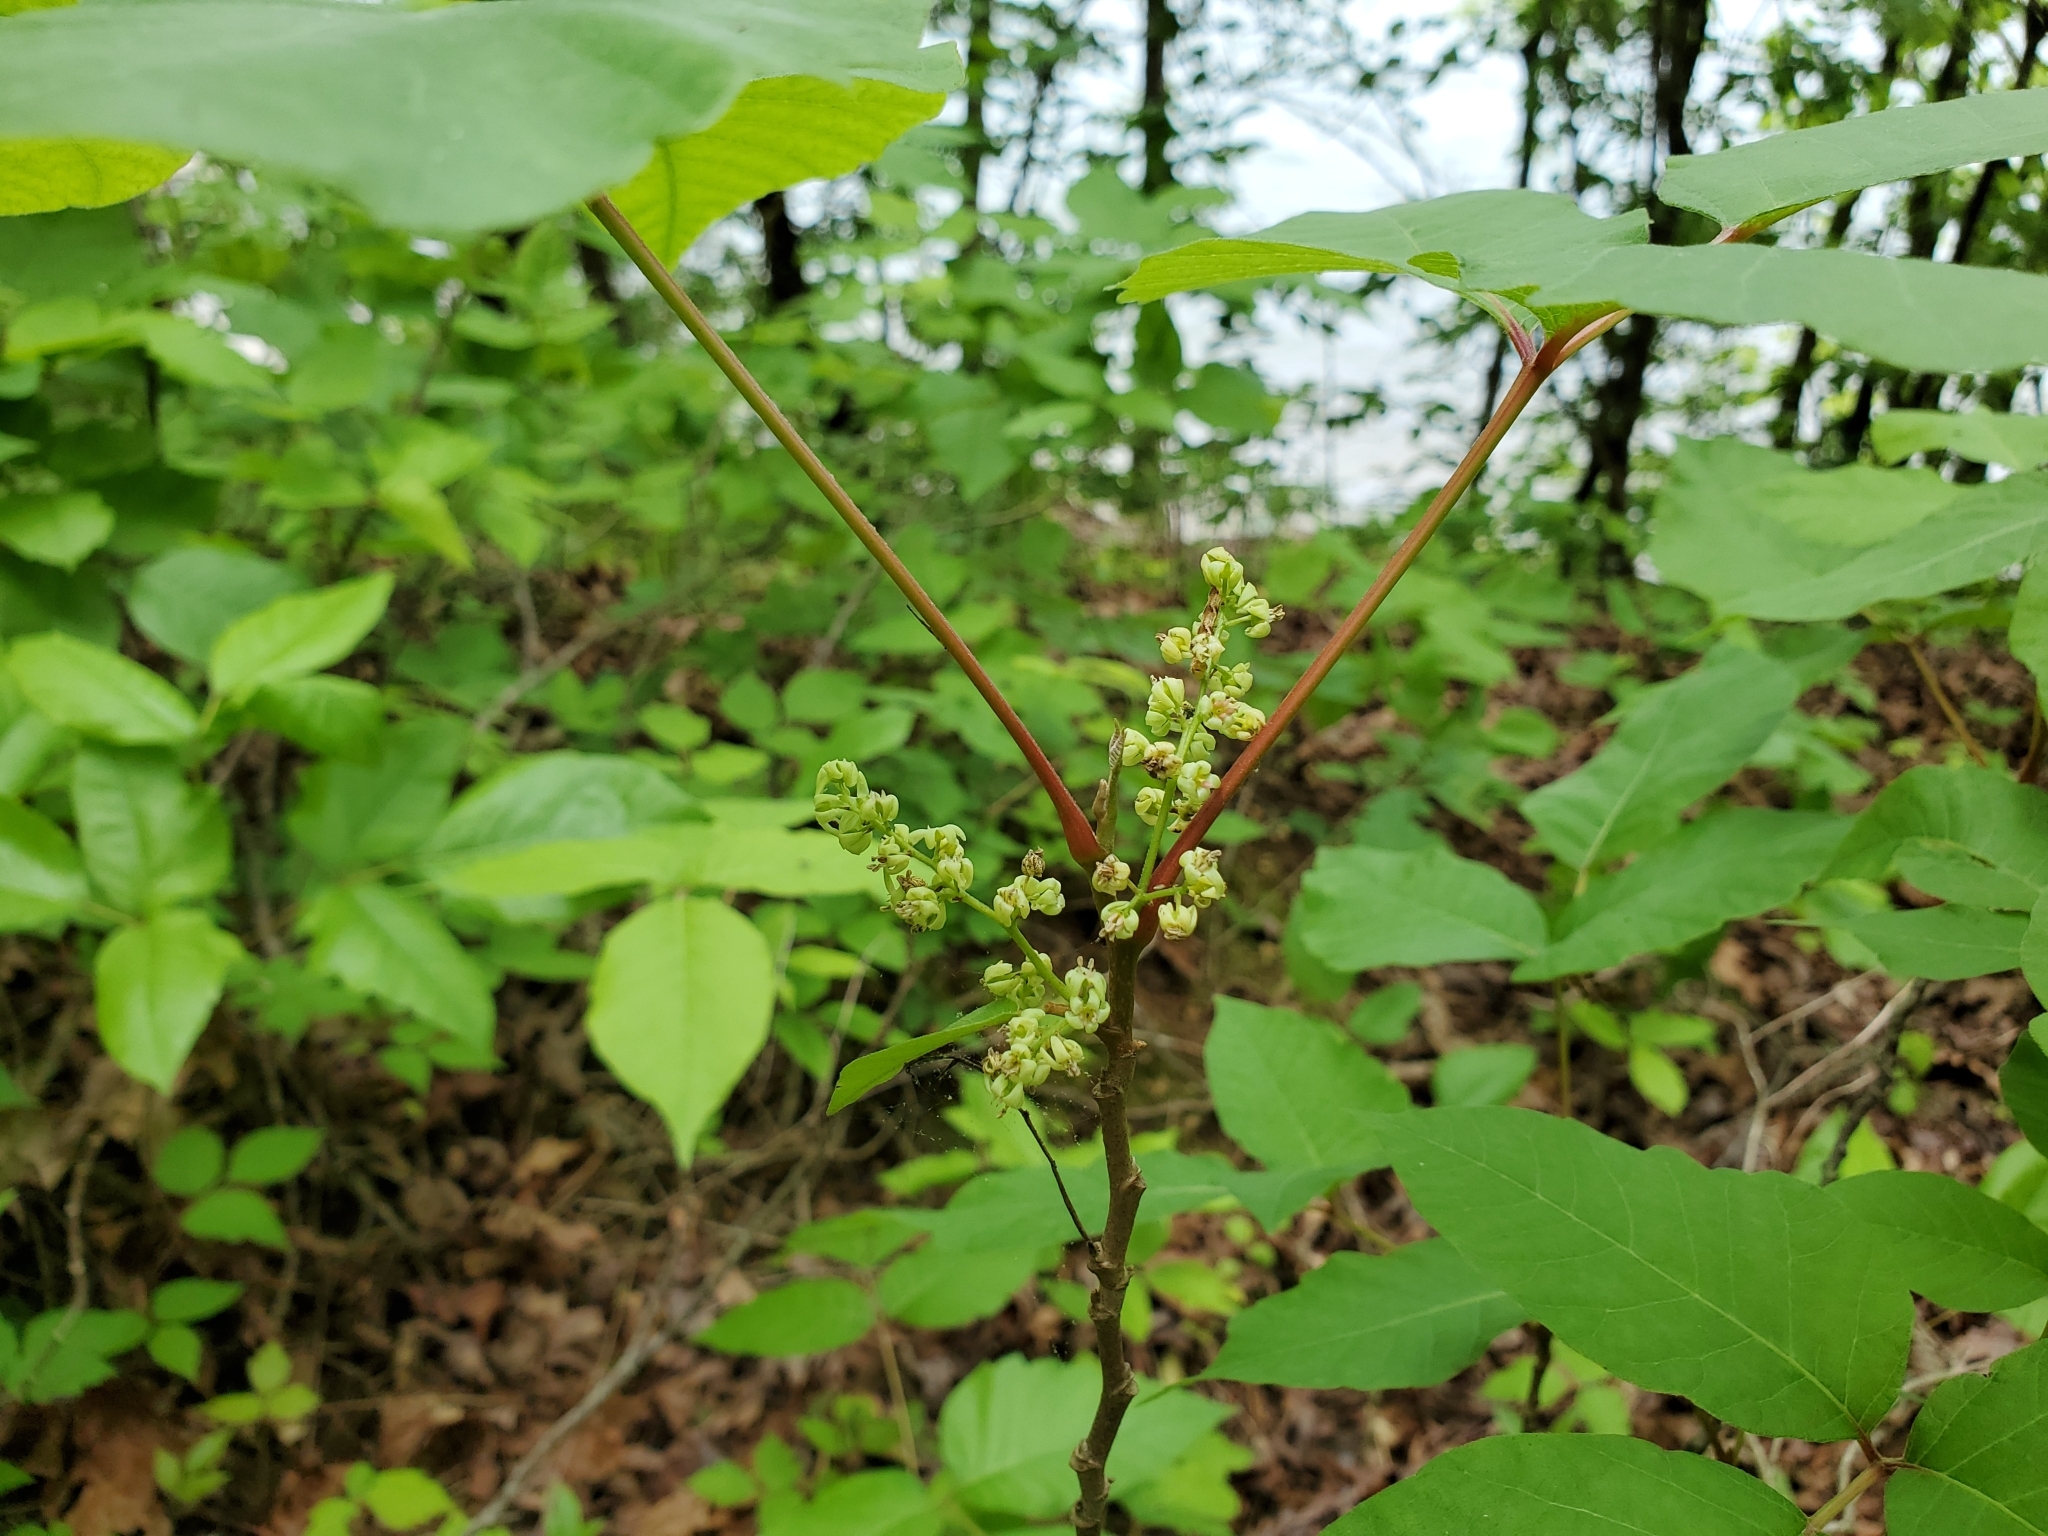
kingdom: Plantae
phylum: Tracheophyta
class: Magnoliopsida
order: Sapindales
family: Anacardiaceae
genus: Toxicodendron
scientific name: Toxicodendron radicans
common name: Poison ivy
